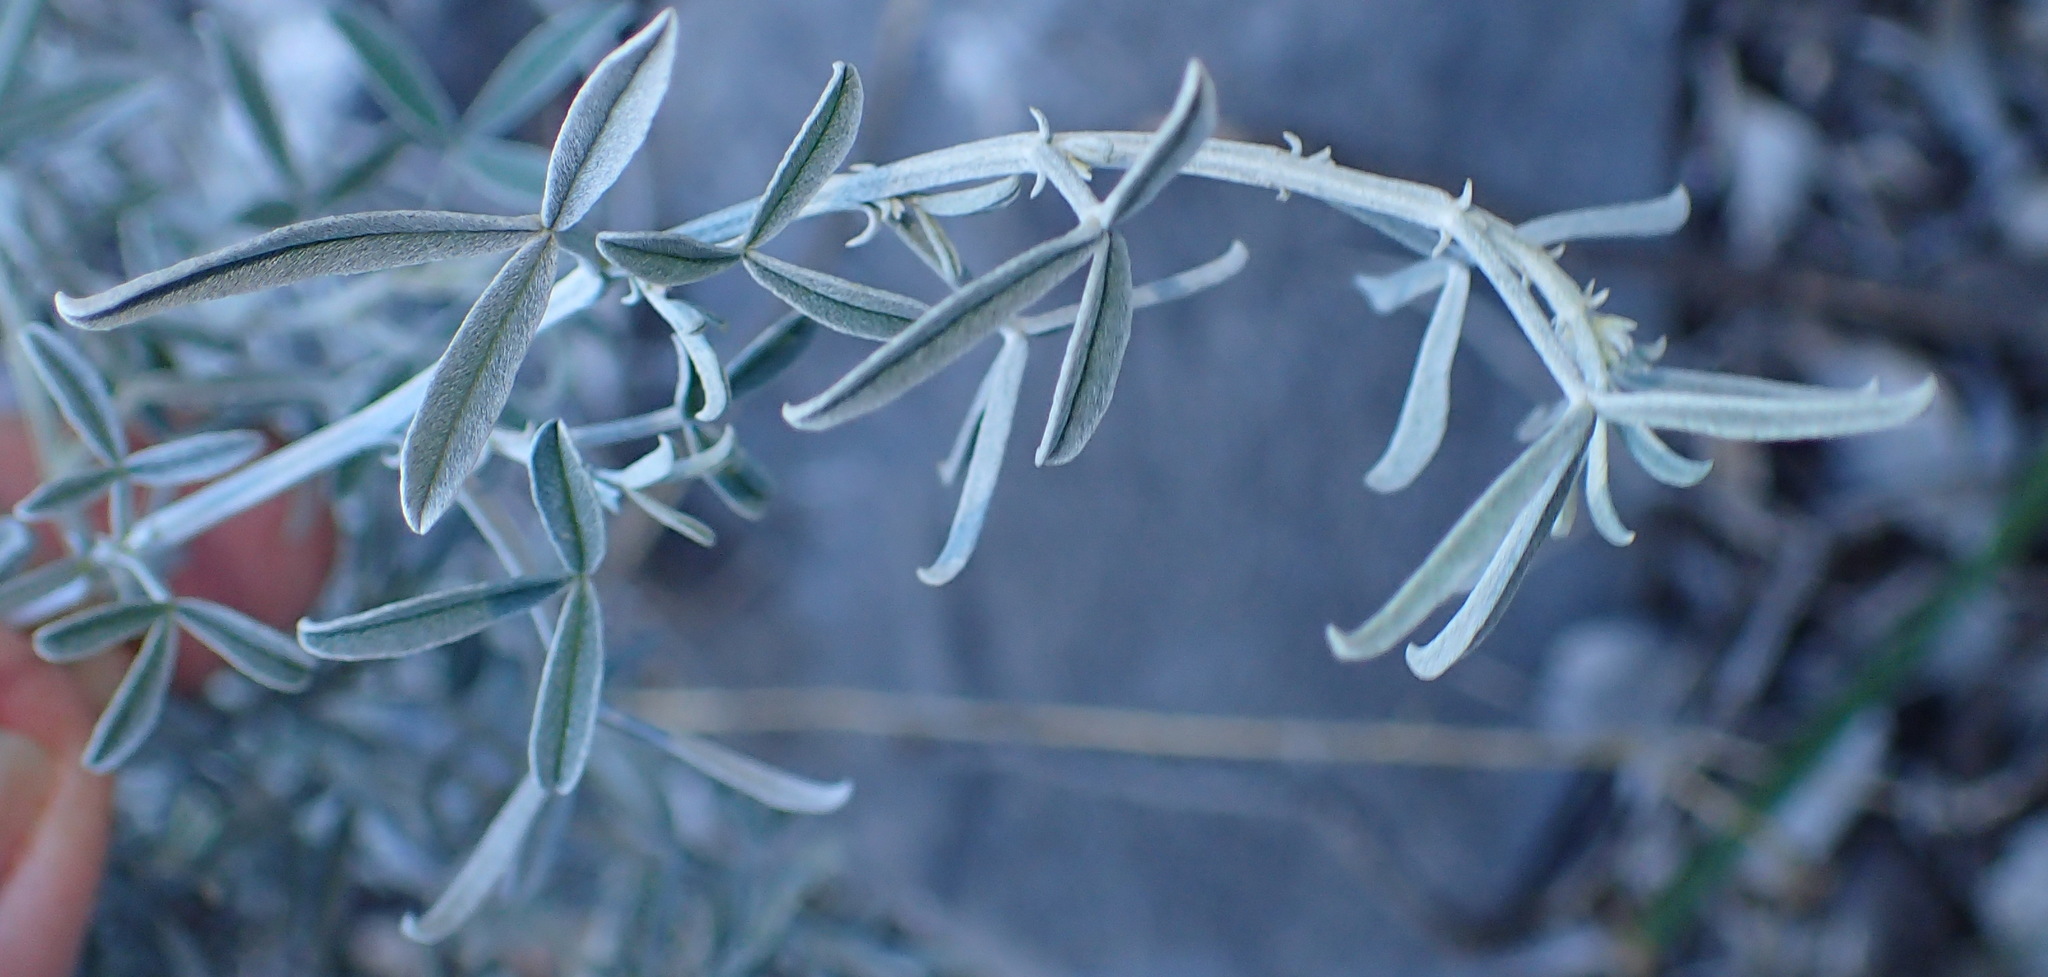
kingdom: Plantae
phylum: Tracheophyta
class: Magnoliopsida
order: Fabales
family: Fabaceae
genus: Indigofera
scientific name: Indigofera complicata
